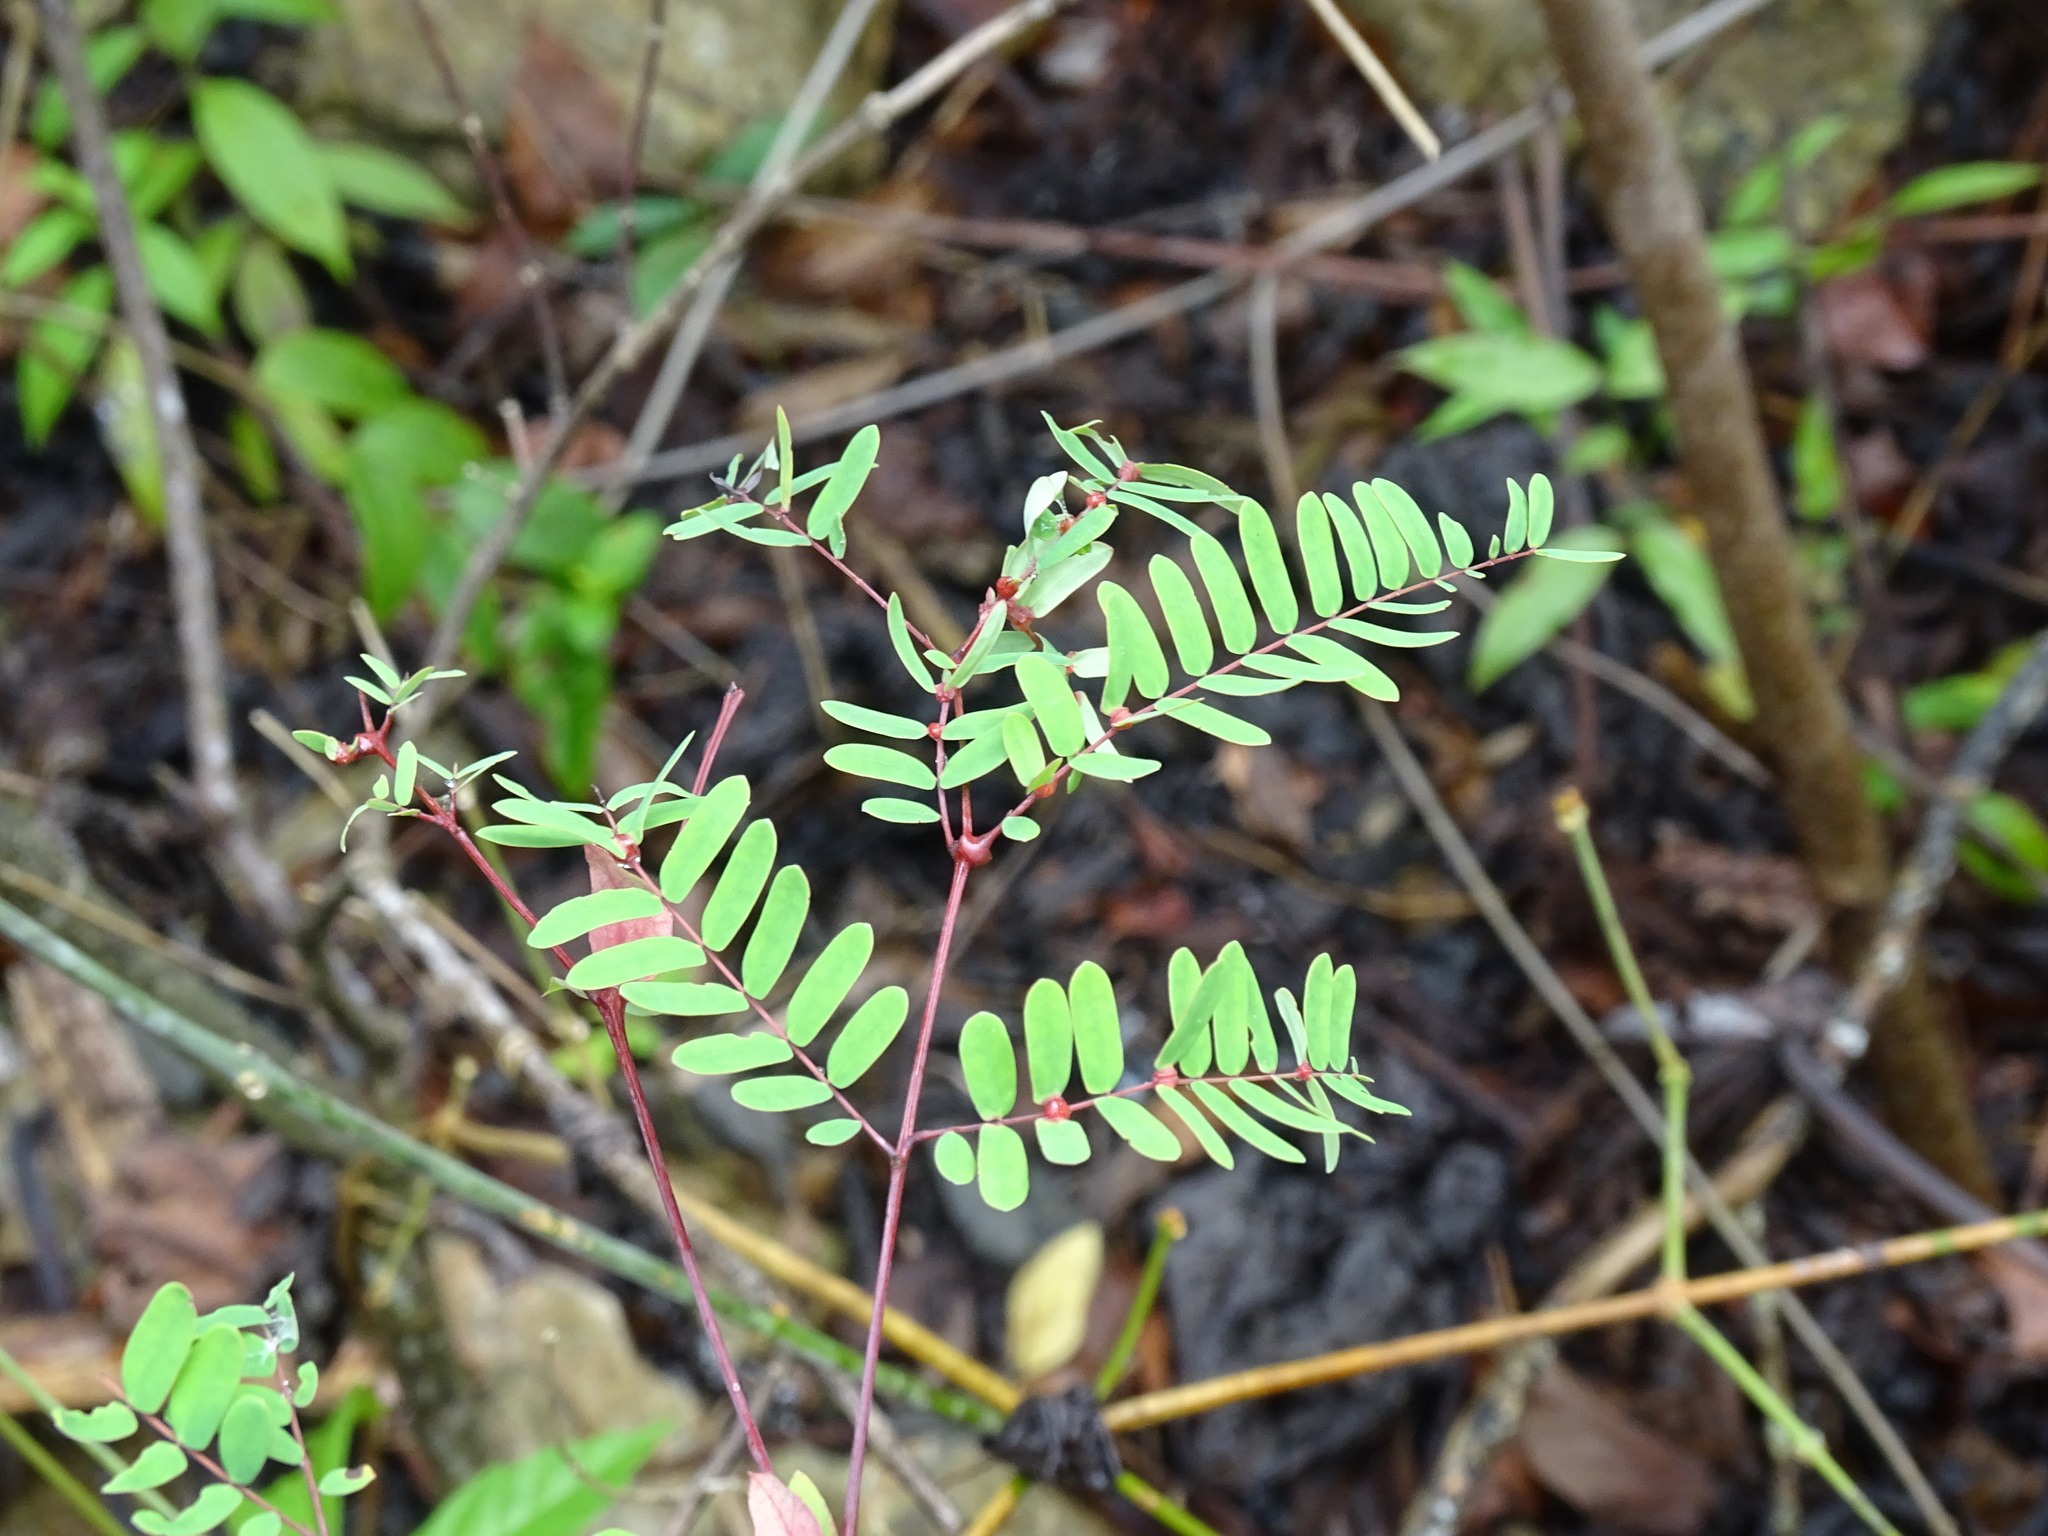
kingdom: Plantae
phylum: Tracheophyta
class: Magnoliopsida
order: Fabales
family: Fabaceae
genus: Lysiloma
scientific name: Lysiloma latisiliquum
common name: Wild tamarind
